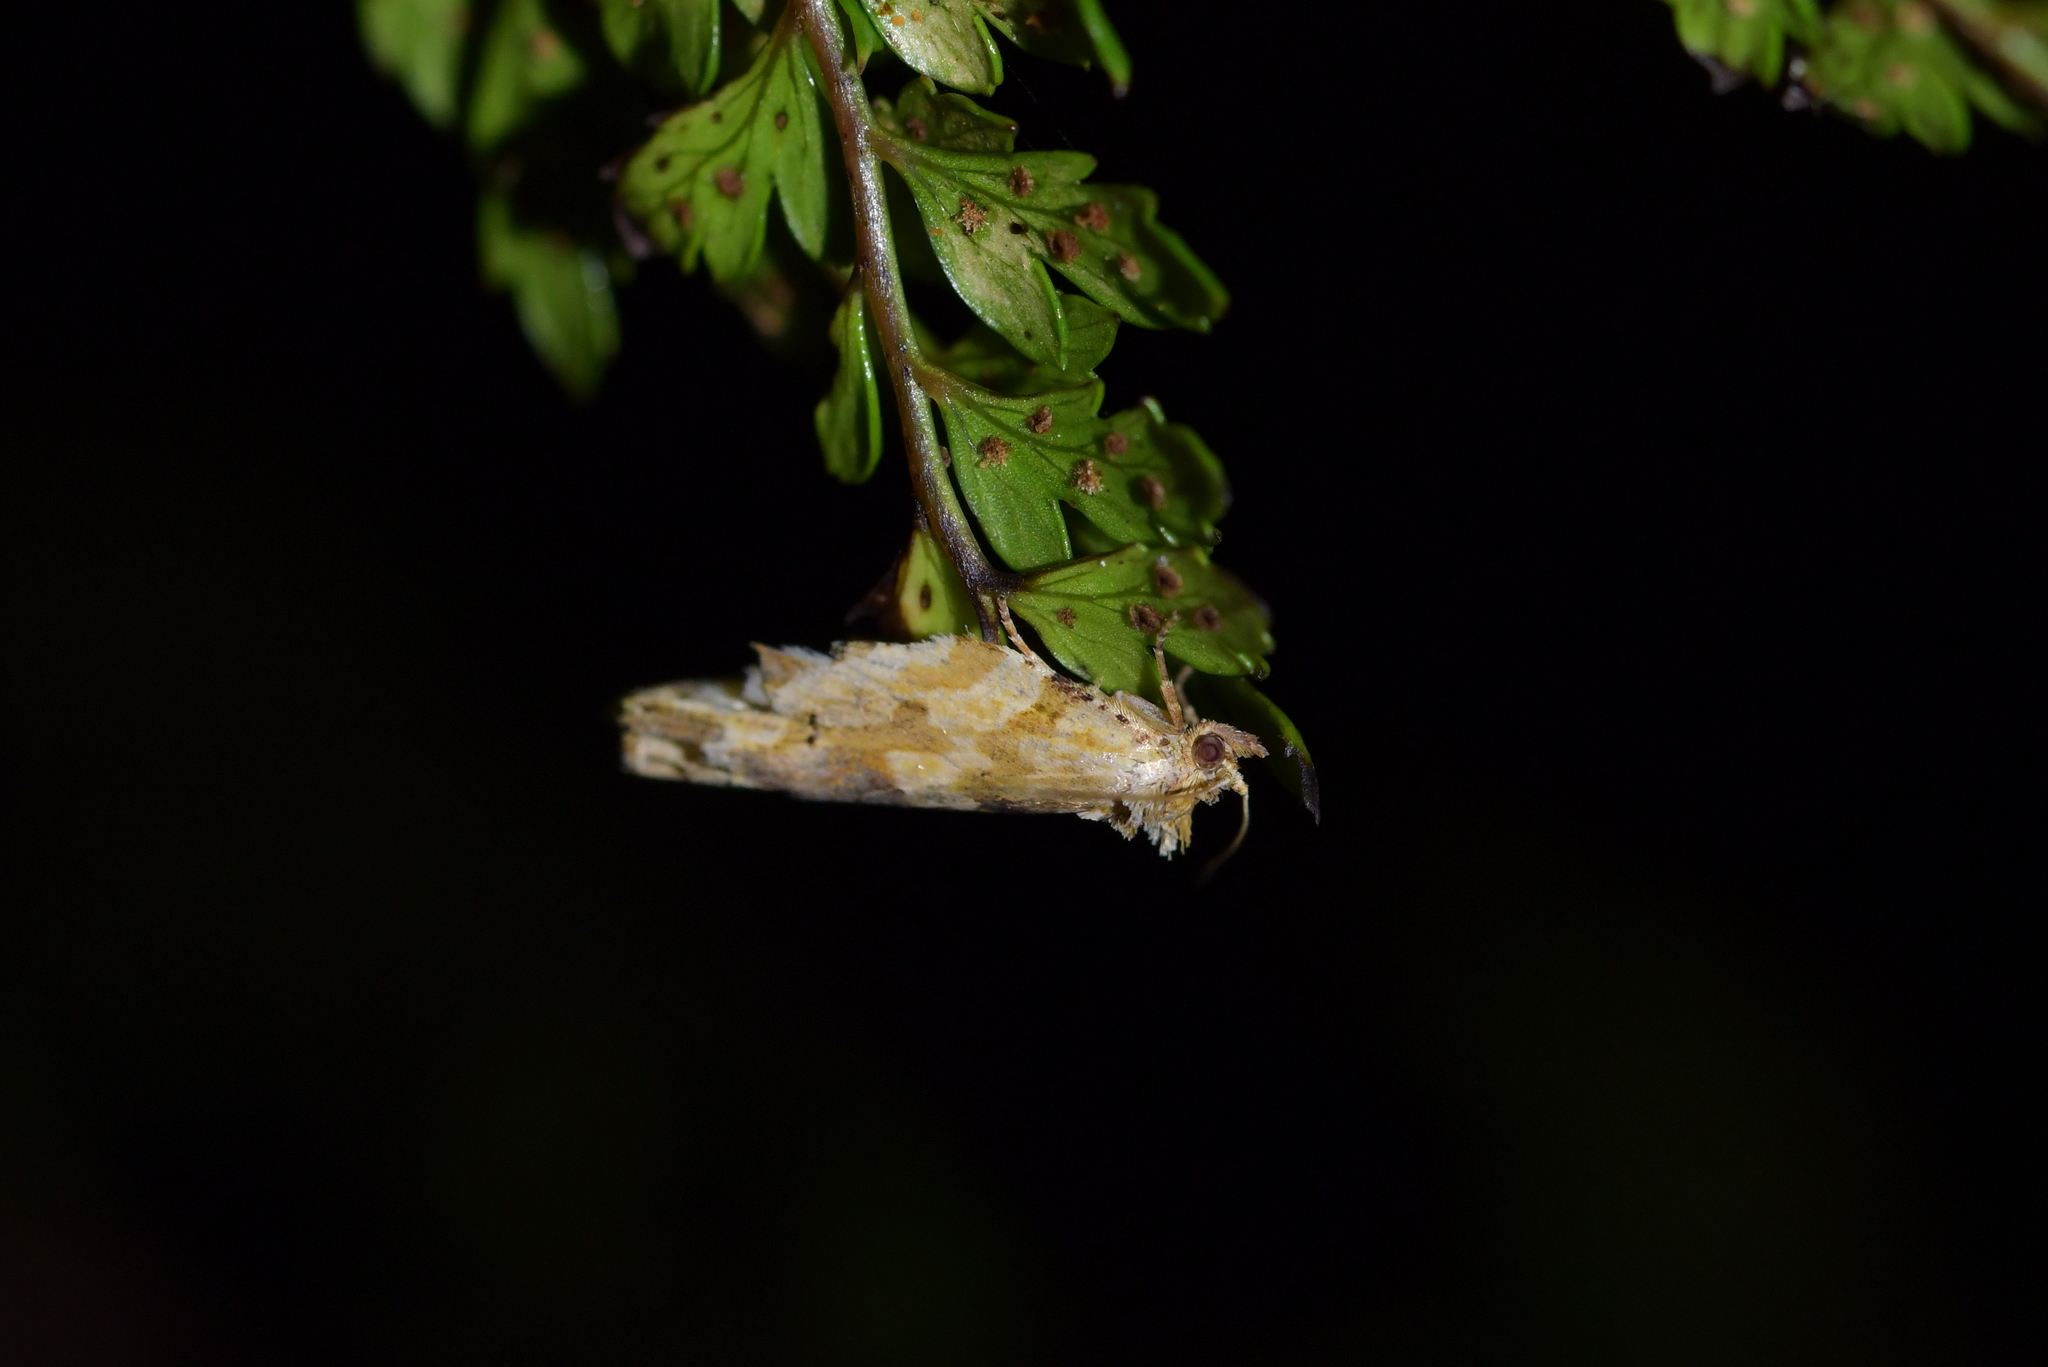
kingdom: Animalia
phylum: Arthropoda
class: Insecta
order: Lepidoptera
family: Tortricidae
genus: Epalxiphora
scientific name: Epalxiphora axenana
